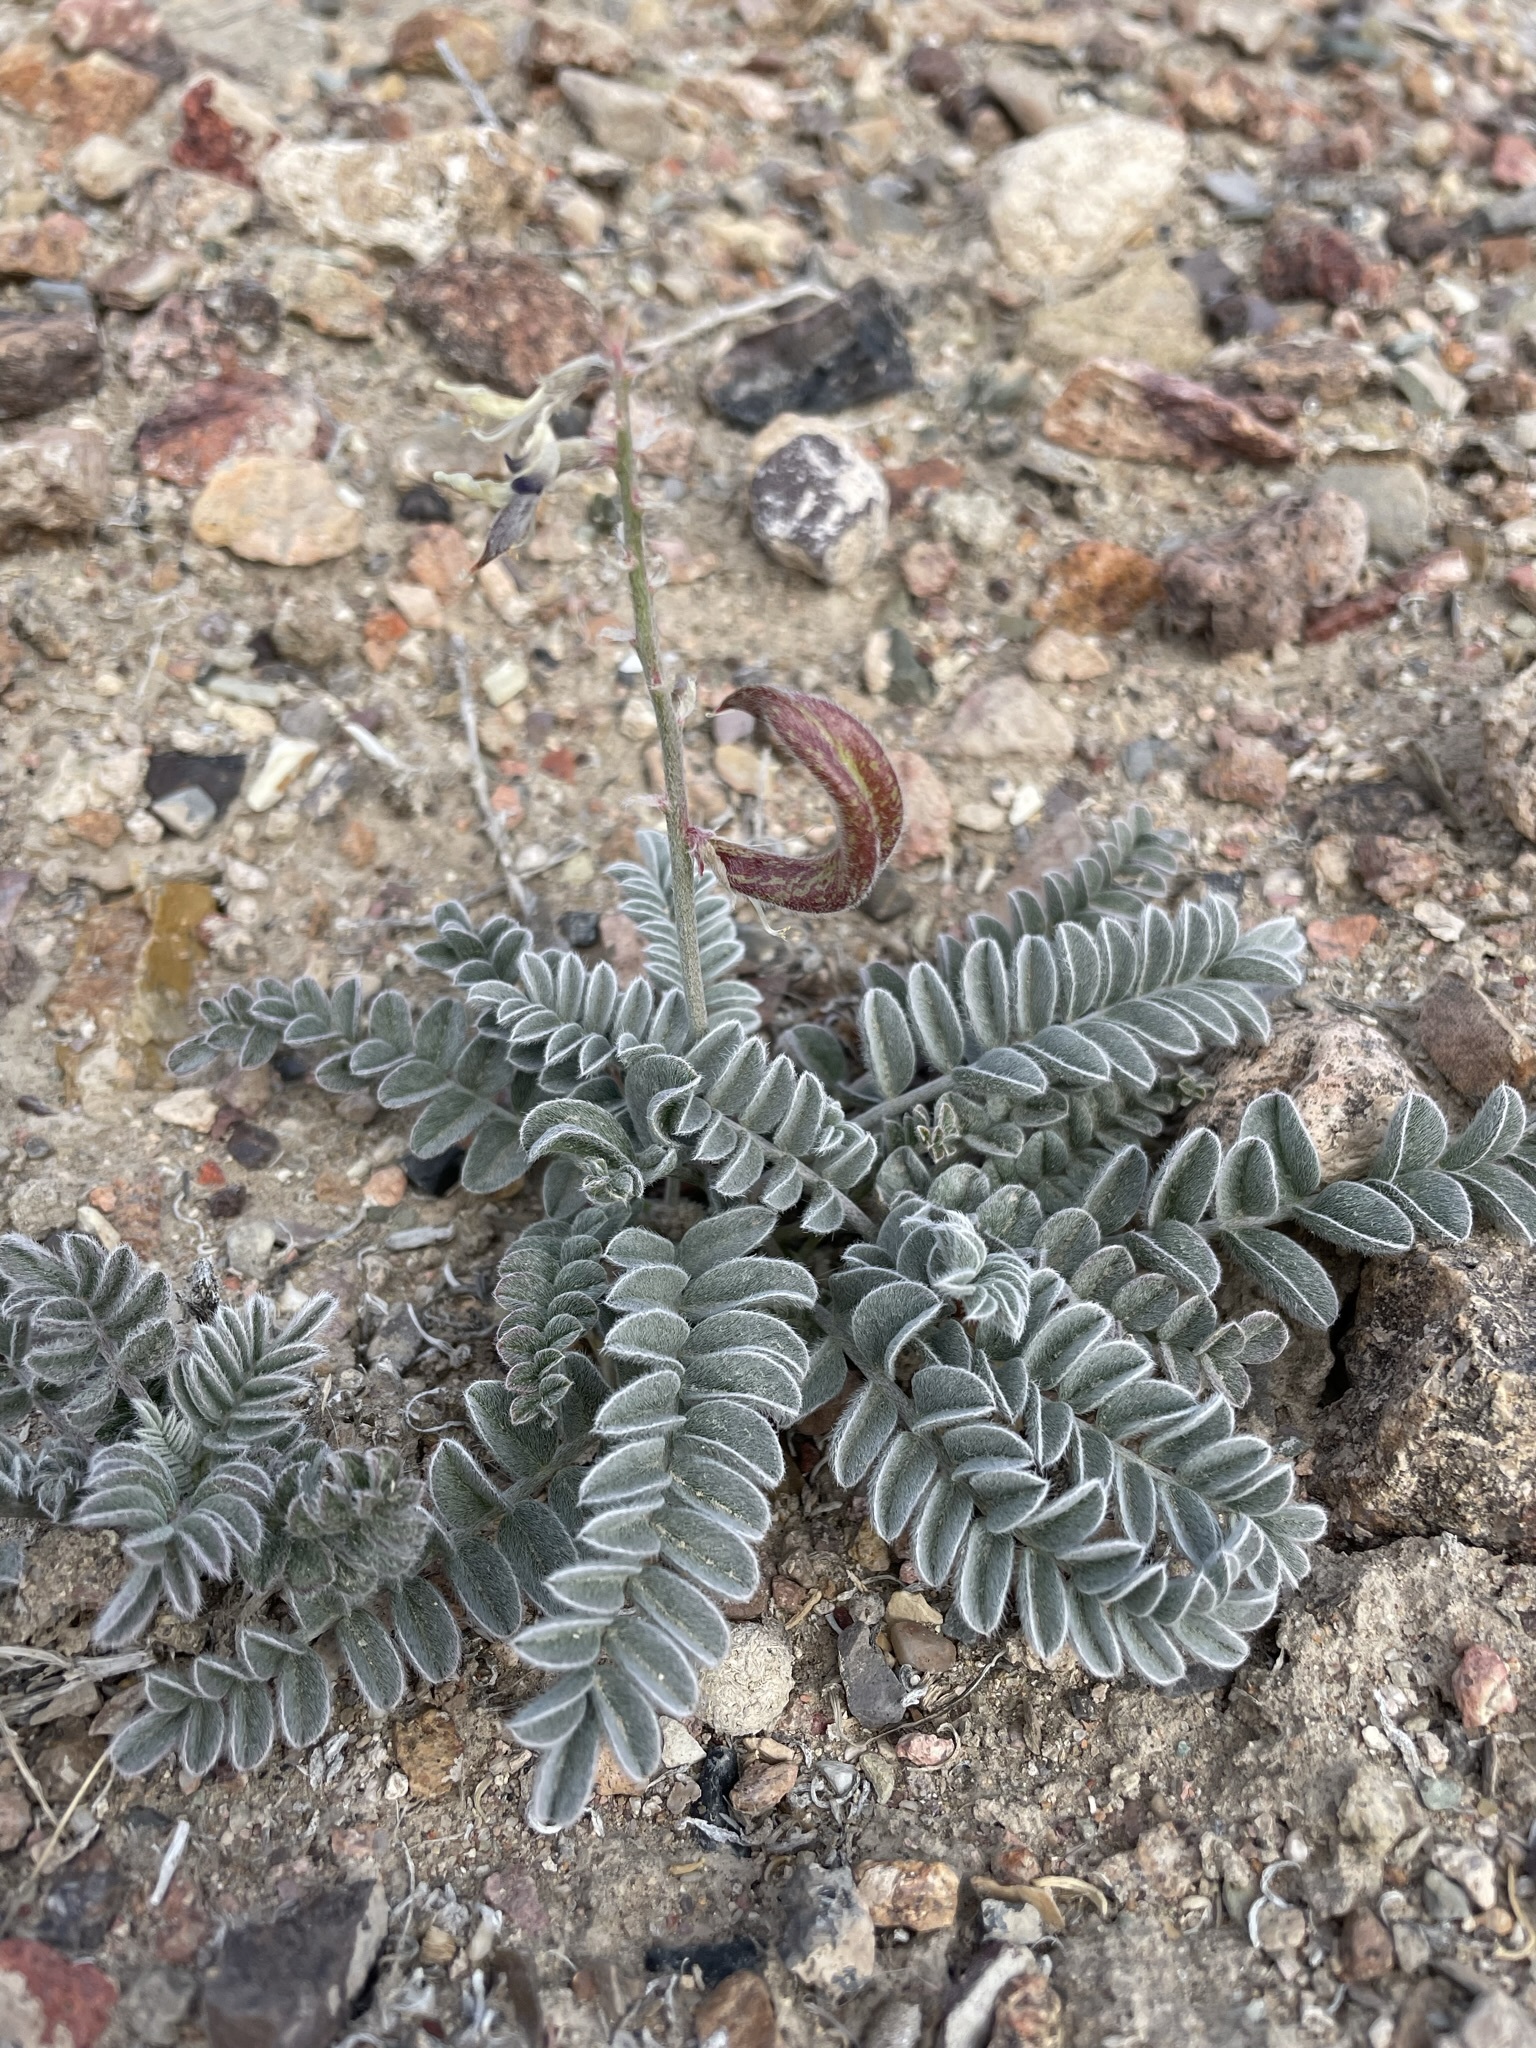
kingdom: Plantae
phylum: Tracheophyta
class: Magnoliopsida
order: Fabales
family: Fabaceae
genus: Astragalus
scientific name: Astragalus layneae
